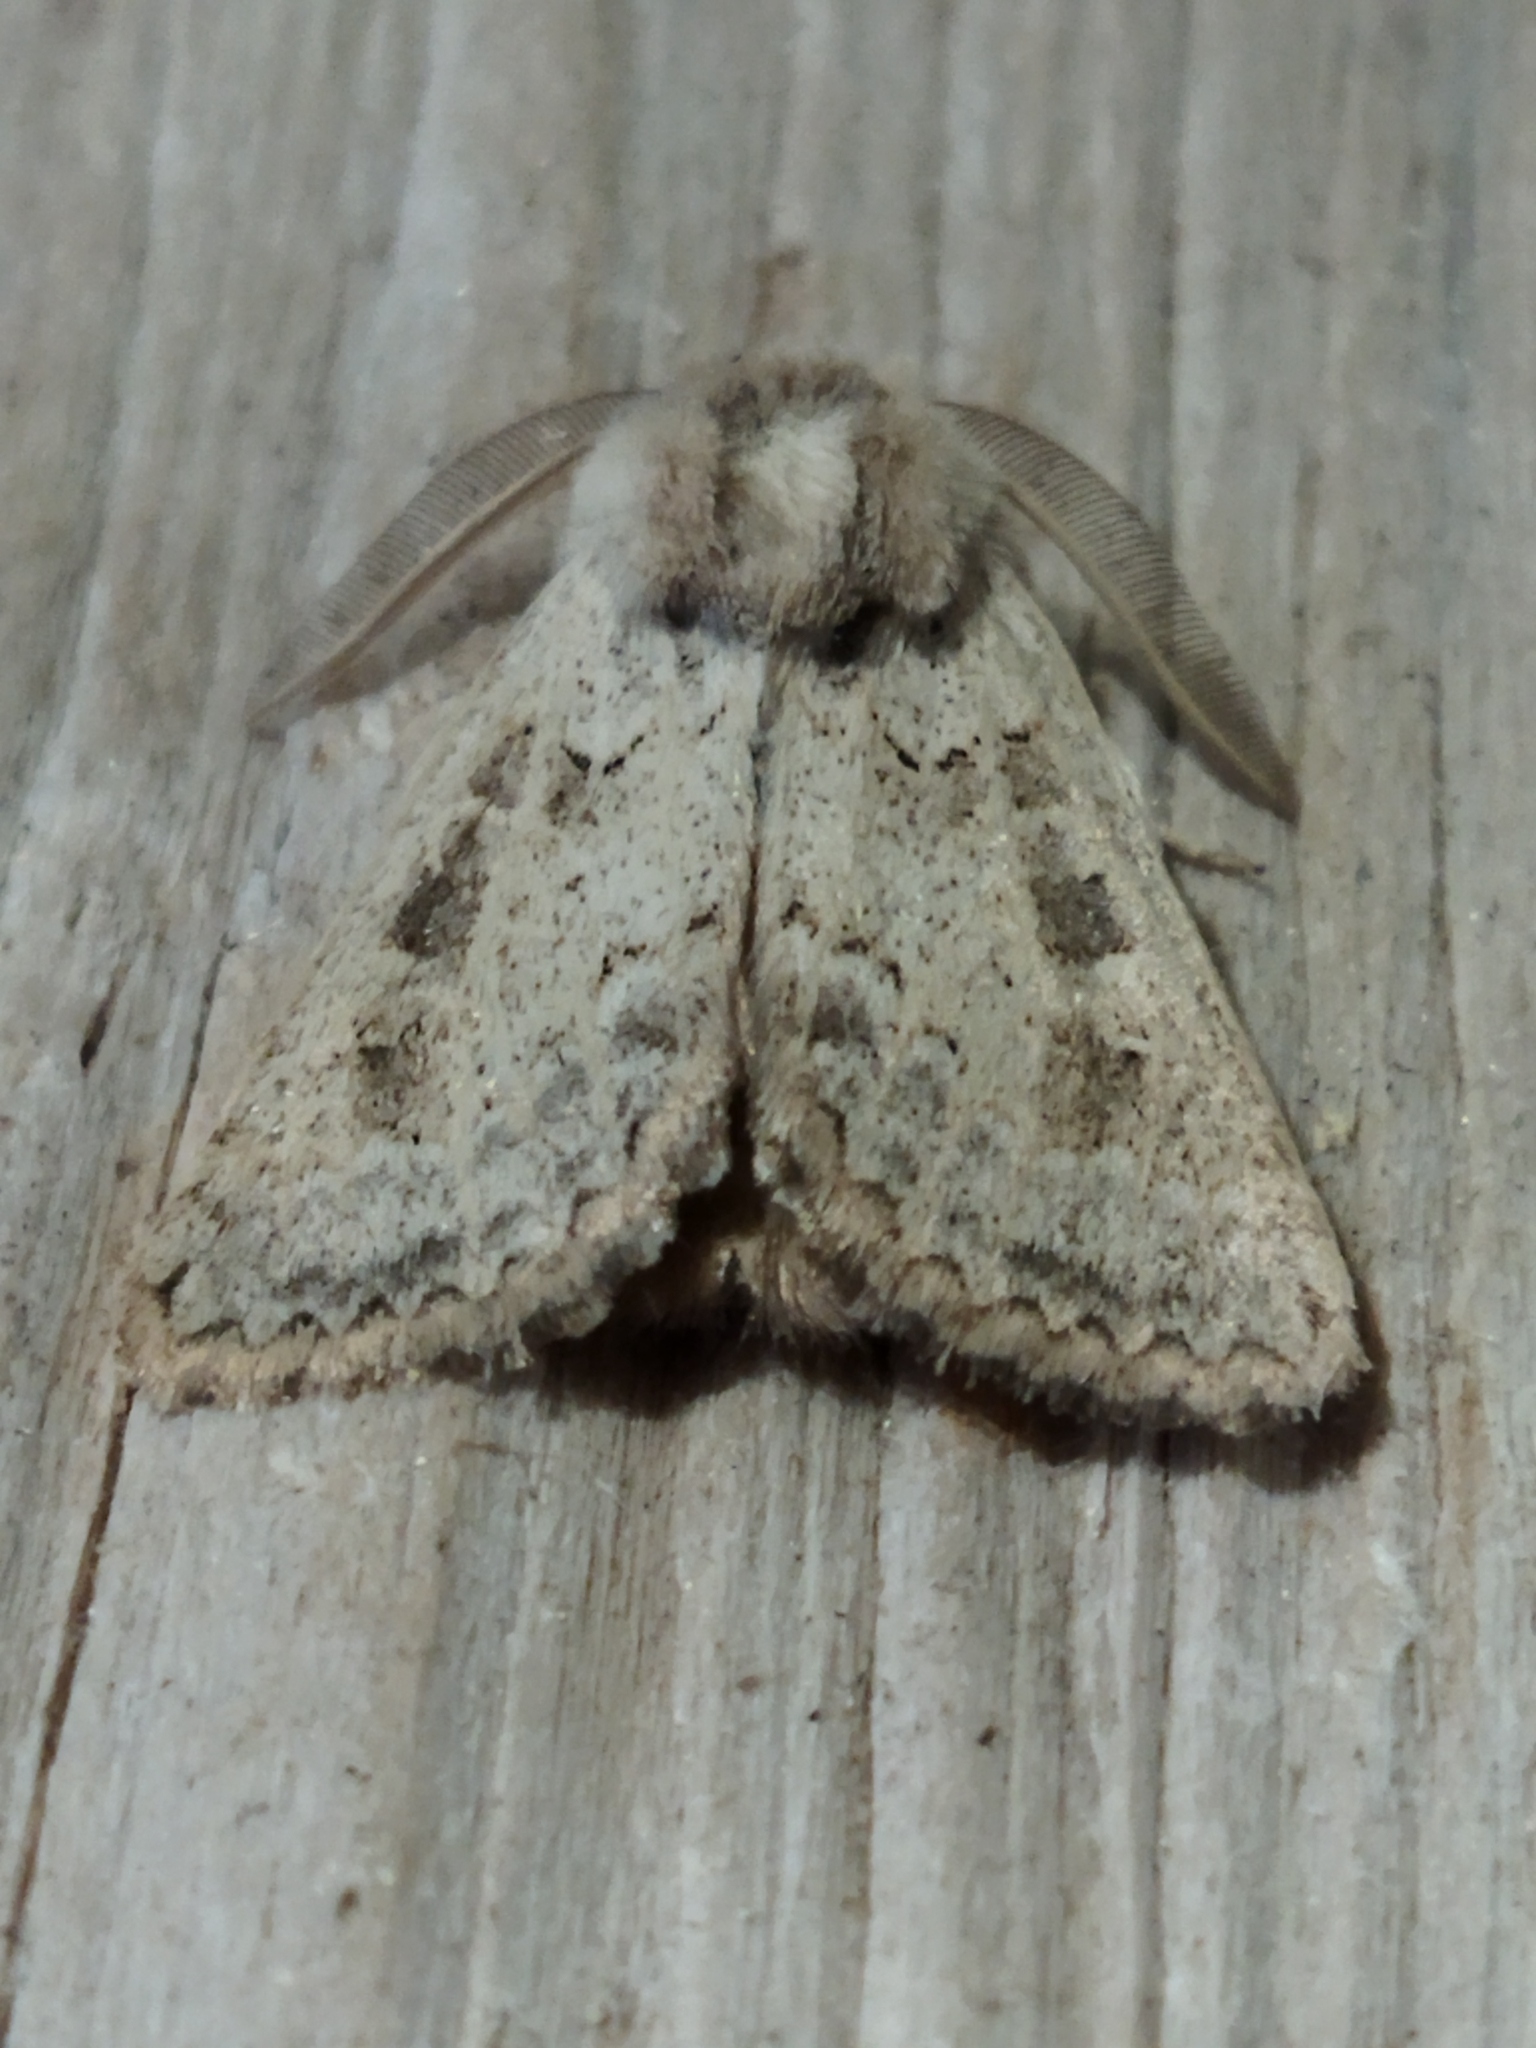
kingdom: Animalia
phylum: Arthropoda
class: Insecta
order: Lepidoptera
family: Noctuidae
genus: Episema
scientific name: Episema lederi
